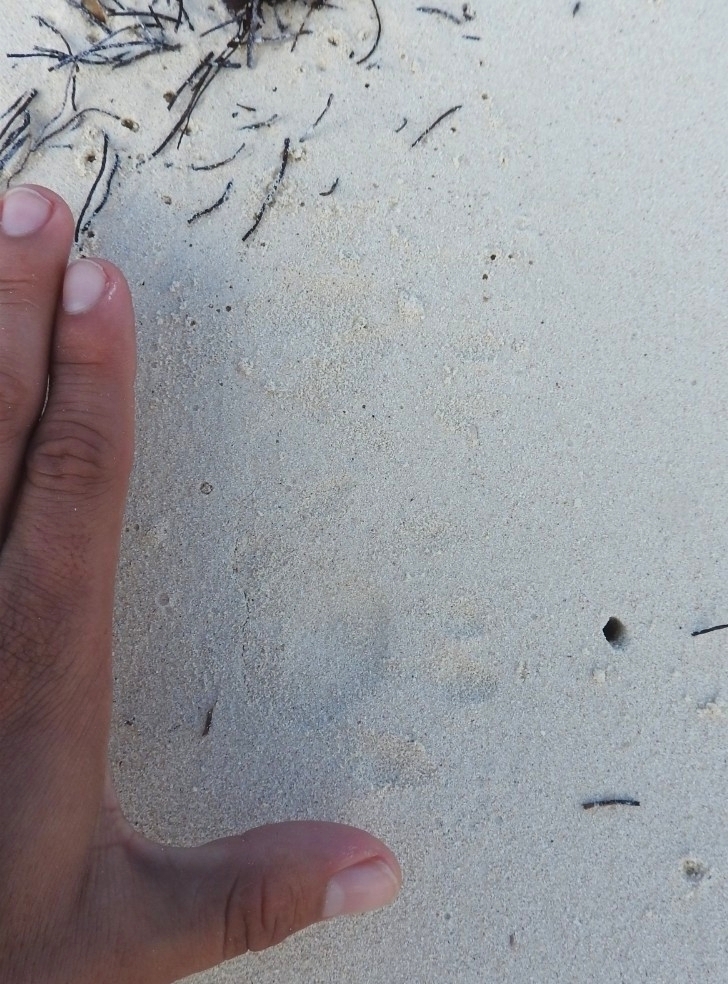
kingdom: Animalia
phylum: Chordata
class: Mammalia
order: Carnivora
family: Procyonidae
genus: Procyon
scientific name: Procyon lotor
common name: Raccoon
